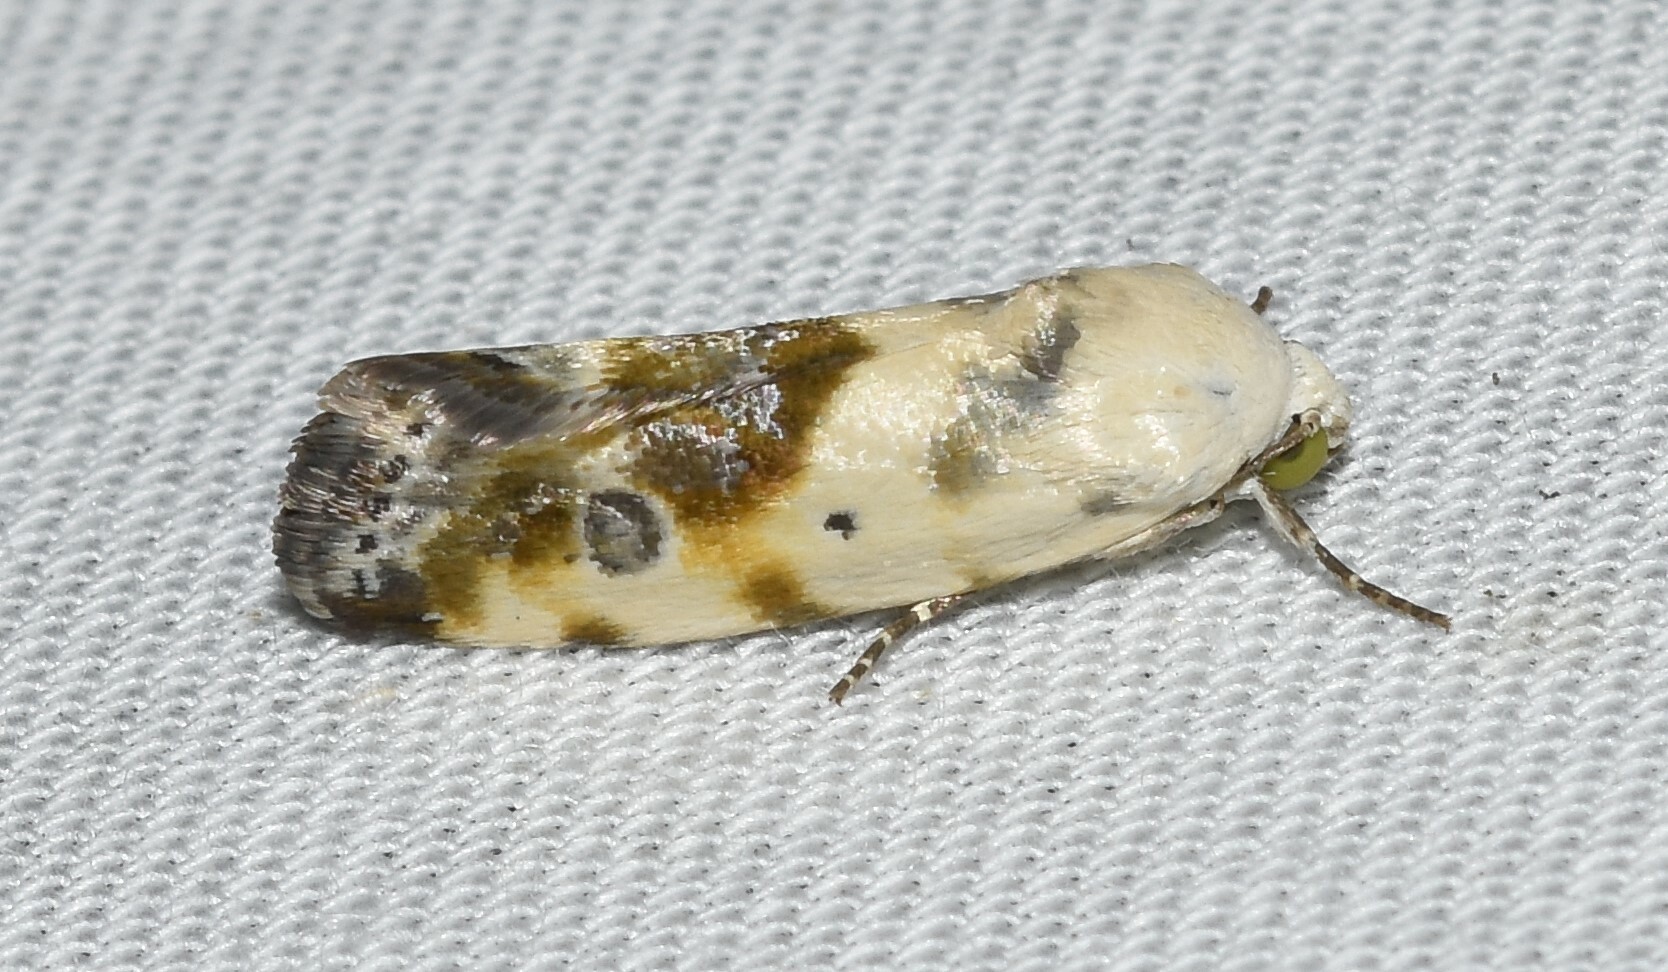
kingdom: Animalia
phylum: Arthropoda
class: Insecta
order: Lepidoptera
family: Noctuidae
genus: Acontia
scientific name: Acontia candefacta
